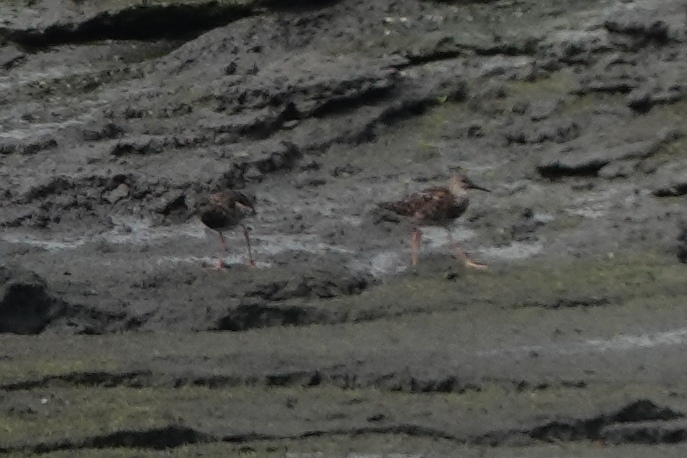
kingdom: Animalia
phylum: Chordata
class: Aves
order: Charadriiformes
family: Scolopacidae
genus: Calidris
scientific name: Calidris pugnax
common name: Ruff
